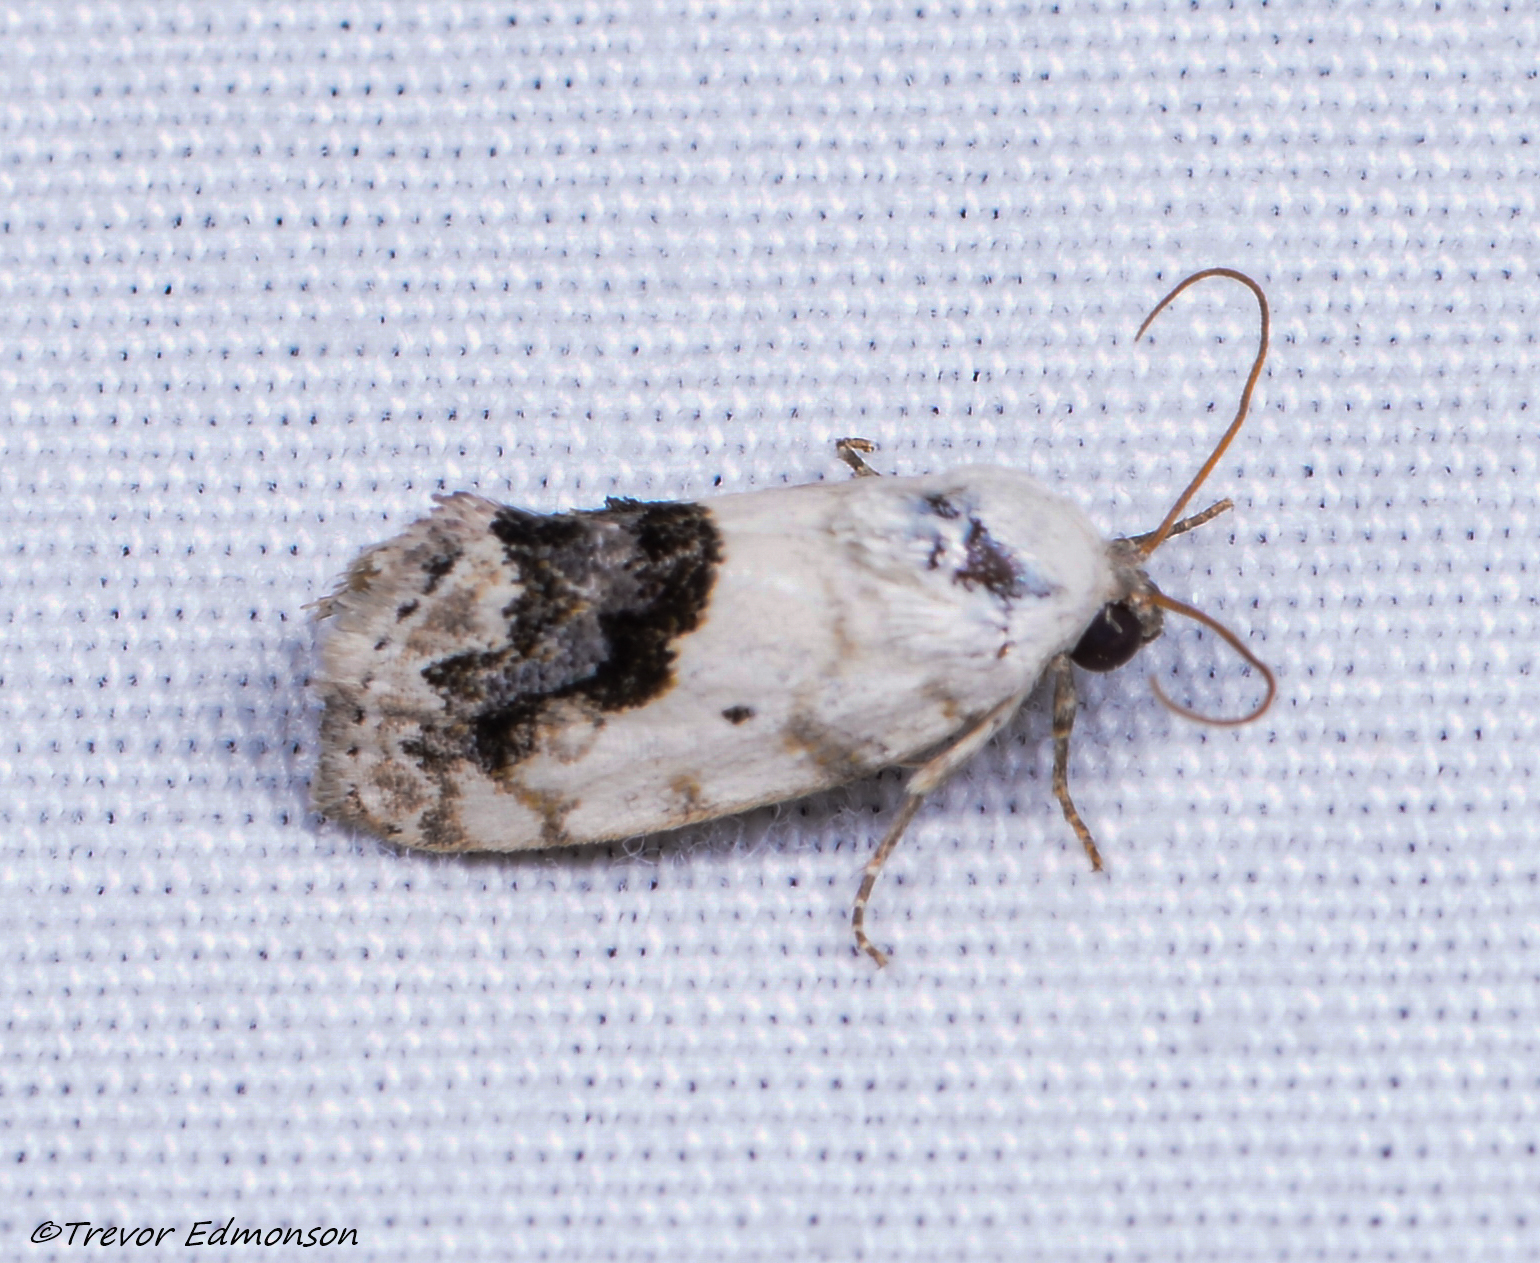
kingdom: Animalia
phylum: Arthropoda
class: Insecta
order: Lepidoptera
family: Noctuidae
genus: Acontia
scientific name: Acontia erastrioides
